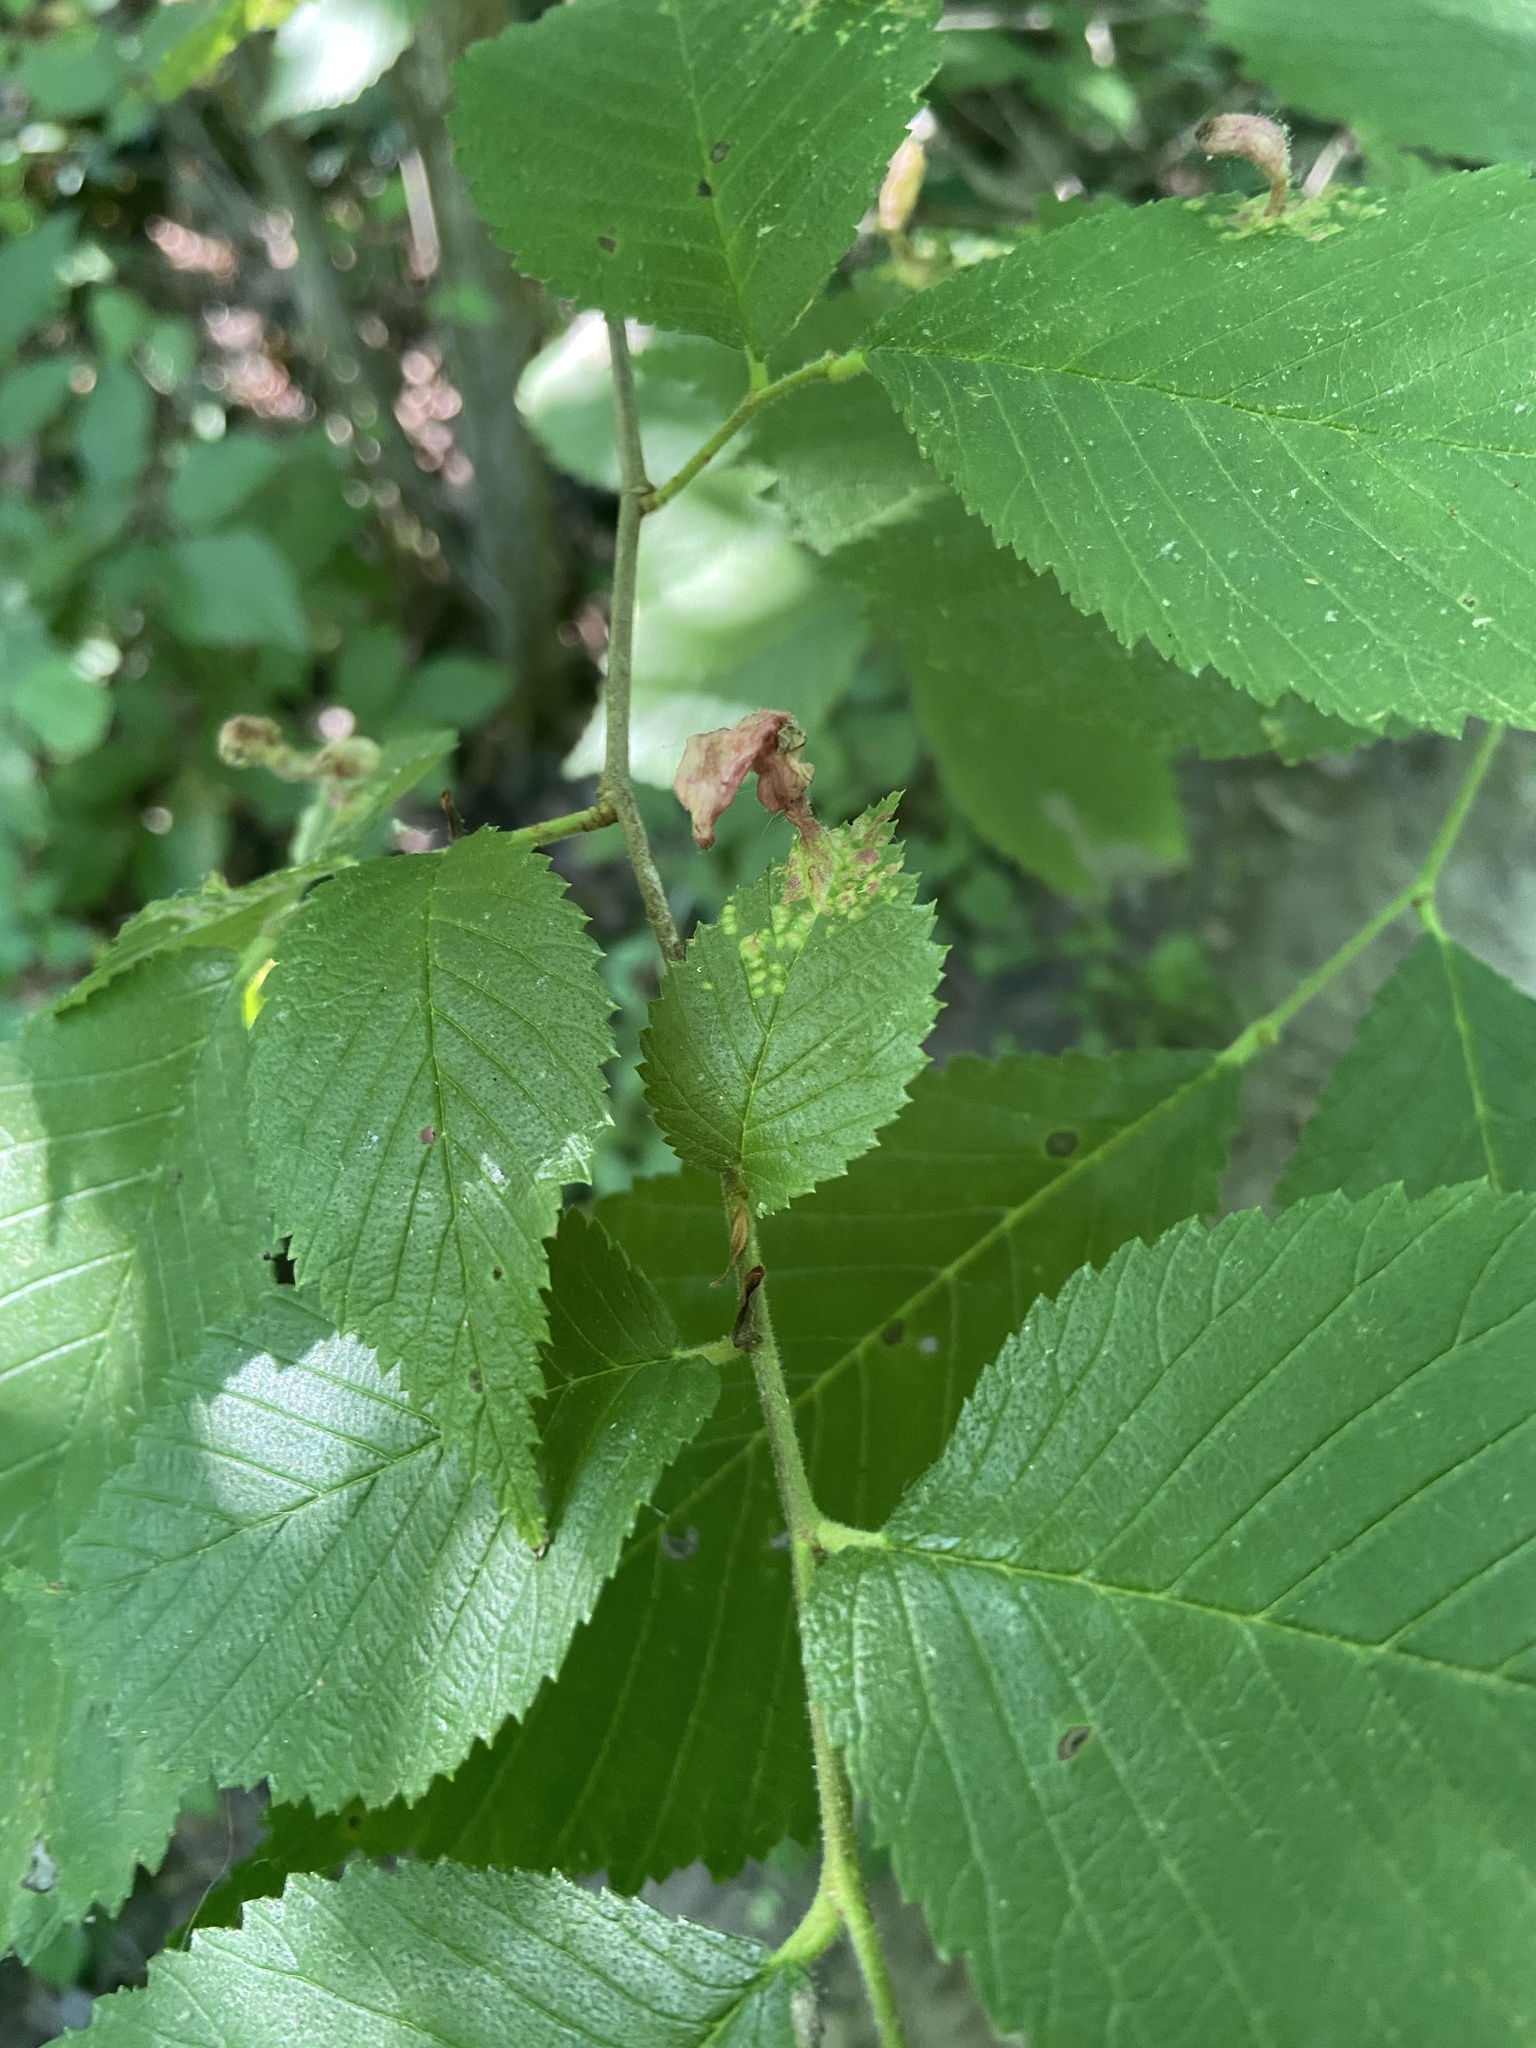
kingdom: Animalia
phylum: Arthropoda
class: Insecta
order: Hemiptera
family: Aphididae
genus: Tetraneura
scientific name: Tetraneura nigriabdominalis
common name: Aphid
